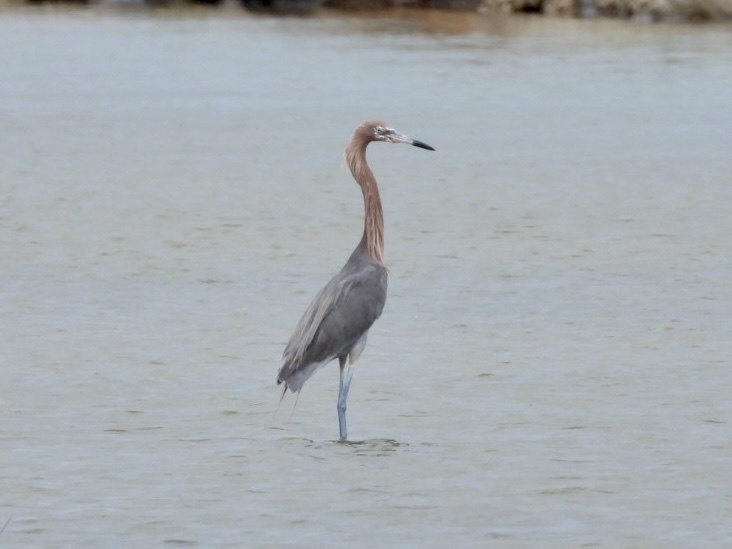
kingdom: Animalia
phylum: Chordata
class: Aves
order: Pelecaniformes
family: Ardeidae
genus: Egretta
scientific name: Egretta rufescens
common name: Reddish egret
